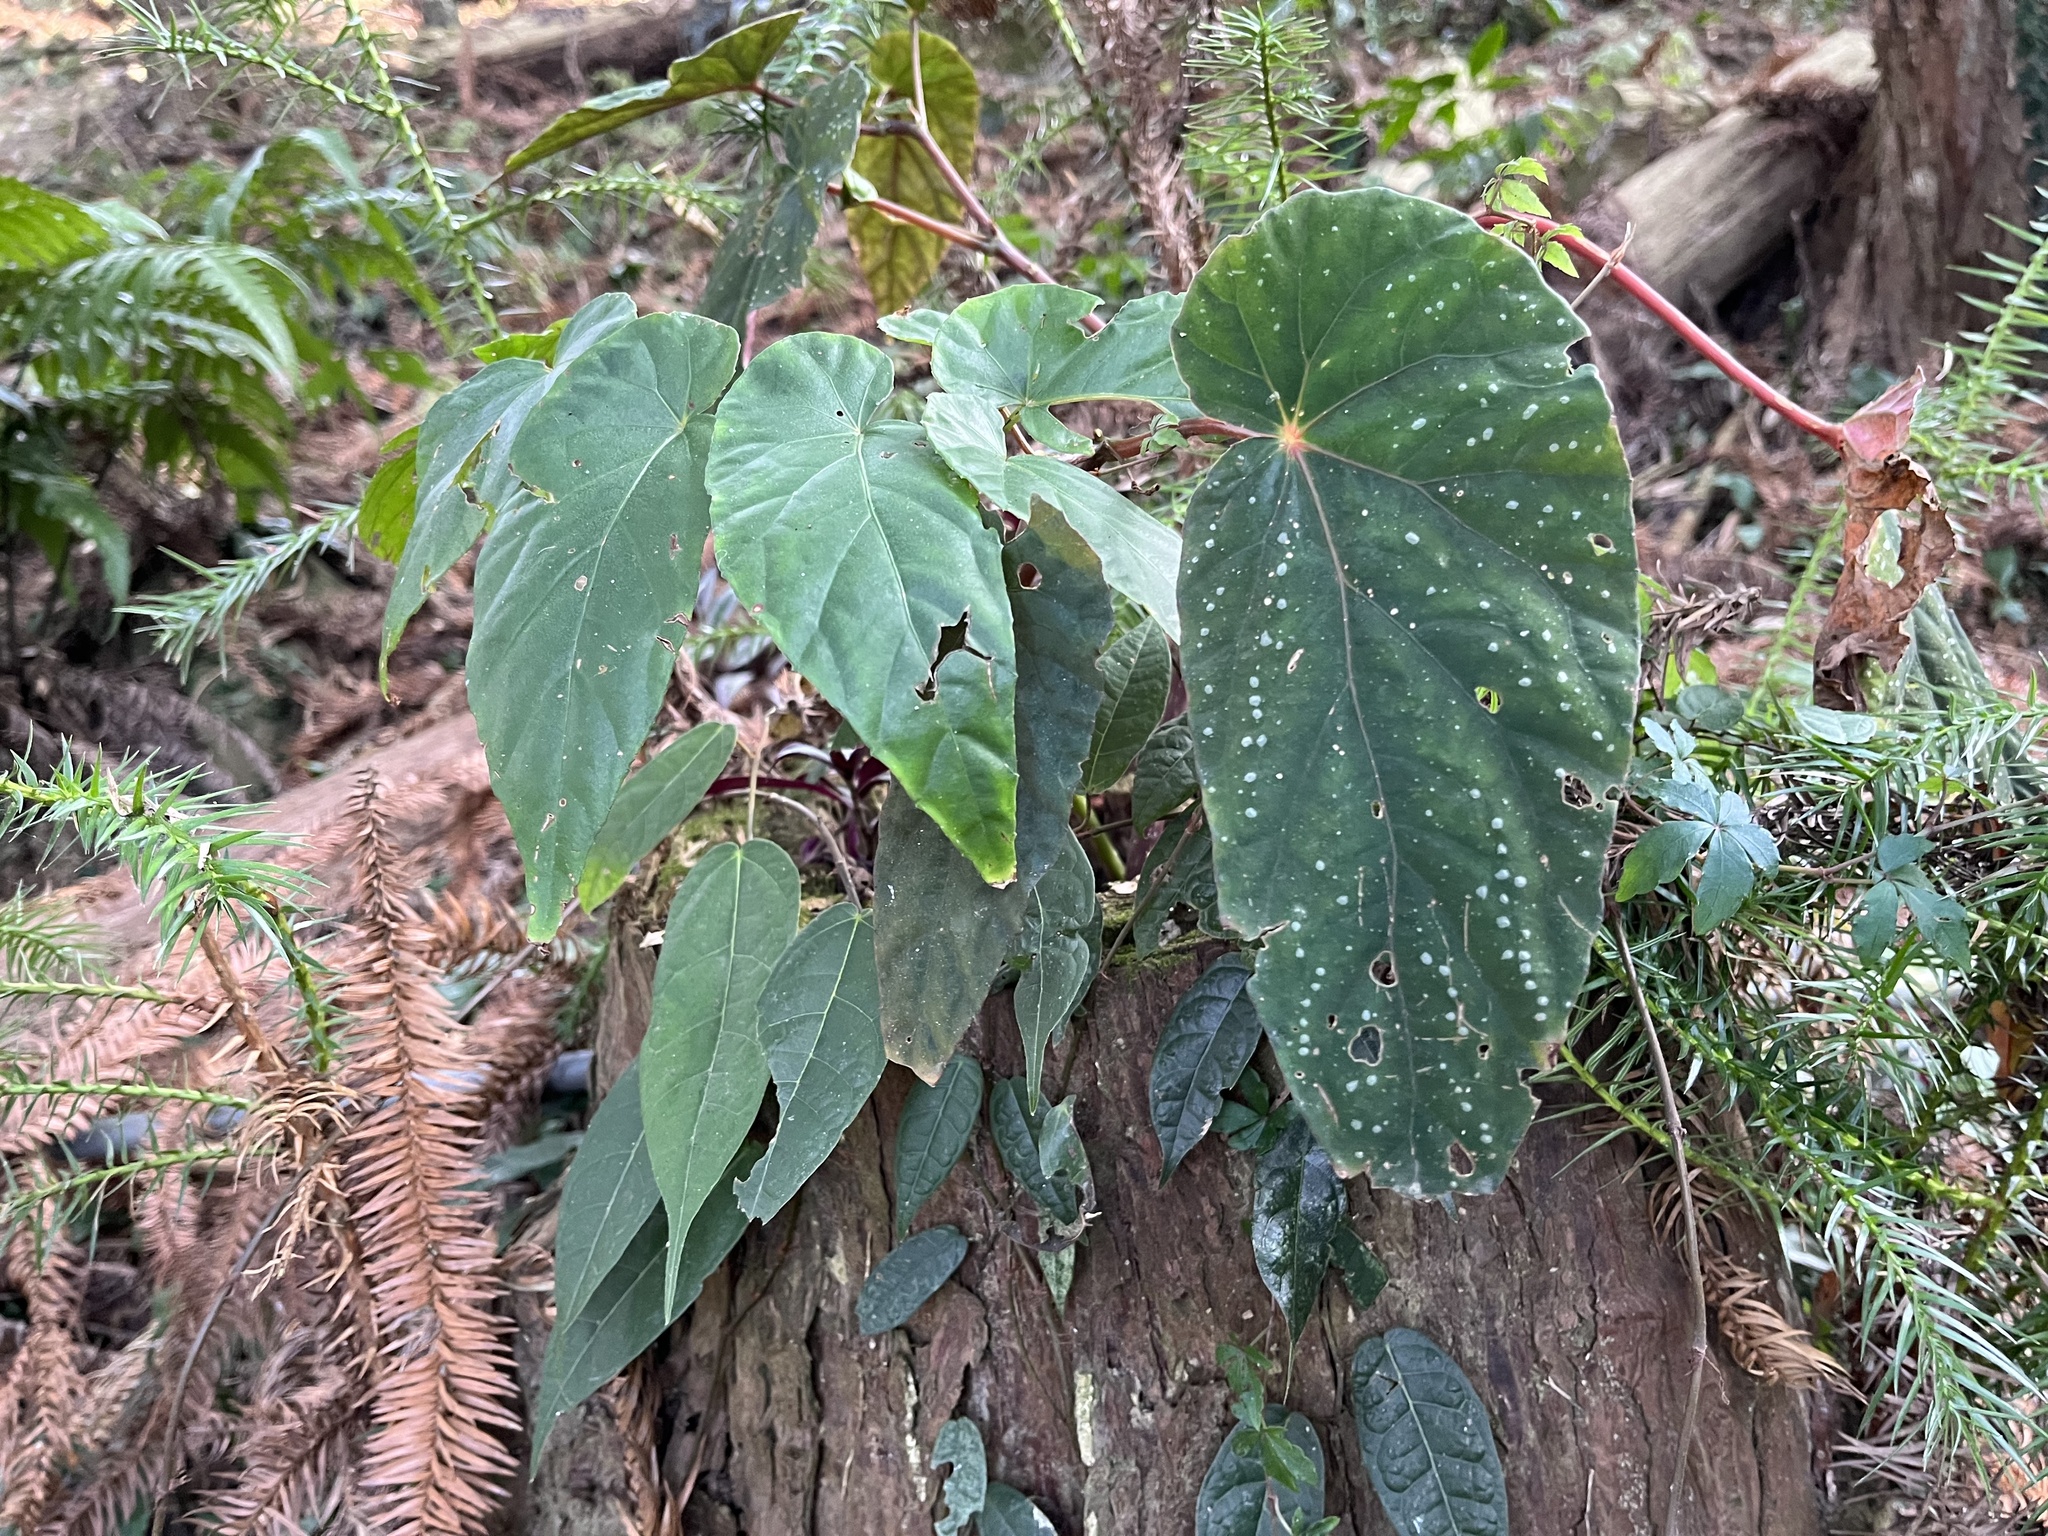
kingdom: Plantae
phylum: Tracheophyta
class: Magnoliopsida
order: Cucurbitales
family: Begoniaceae
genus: Begonia
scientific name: Begonia lukuana
